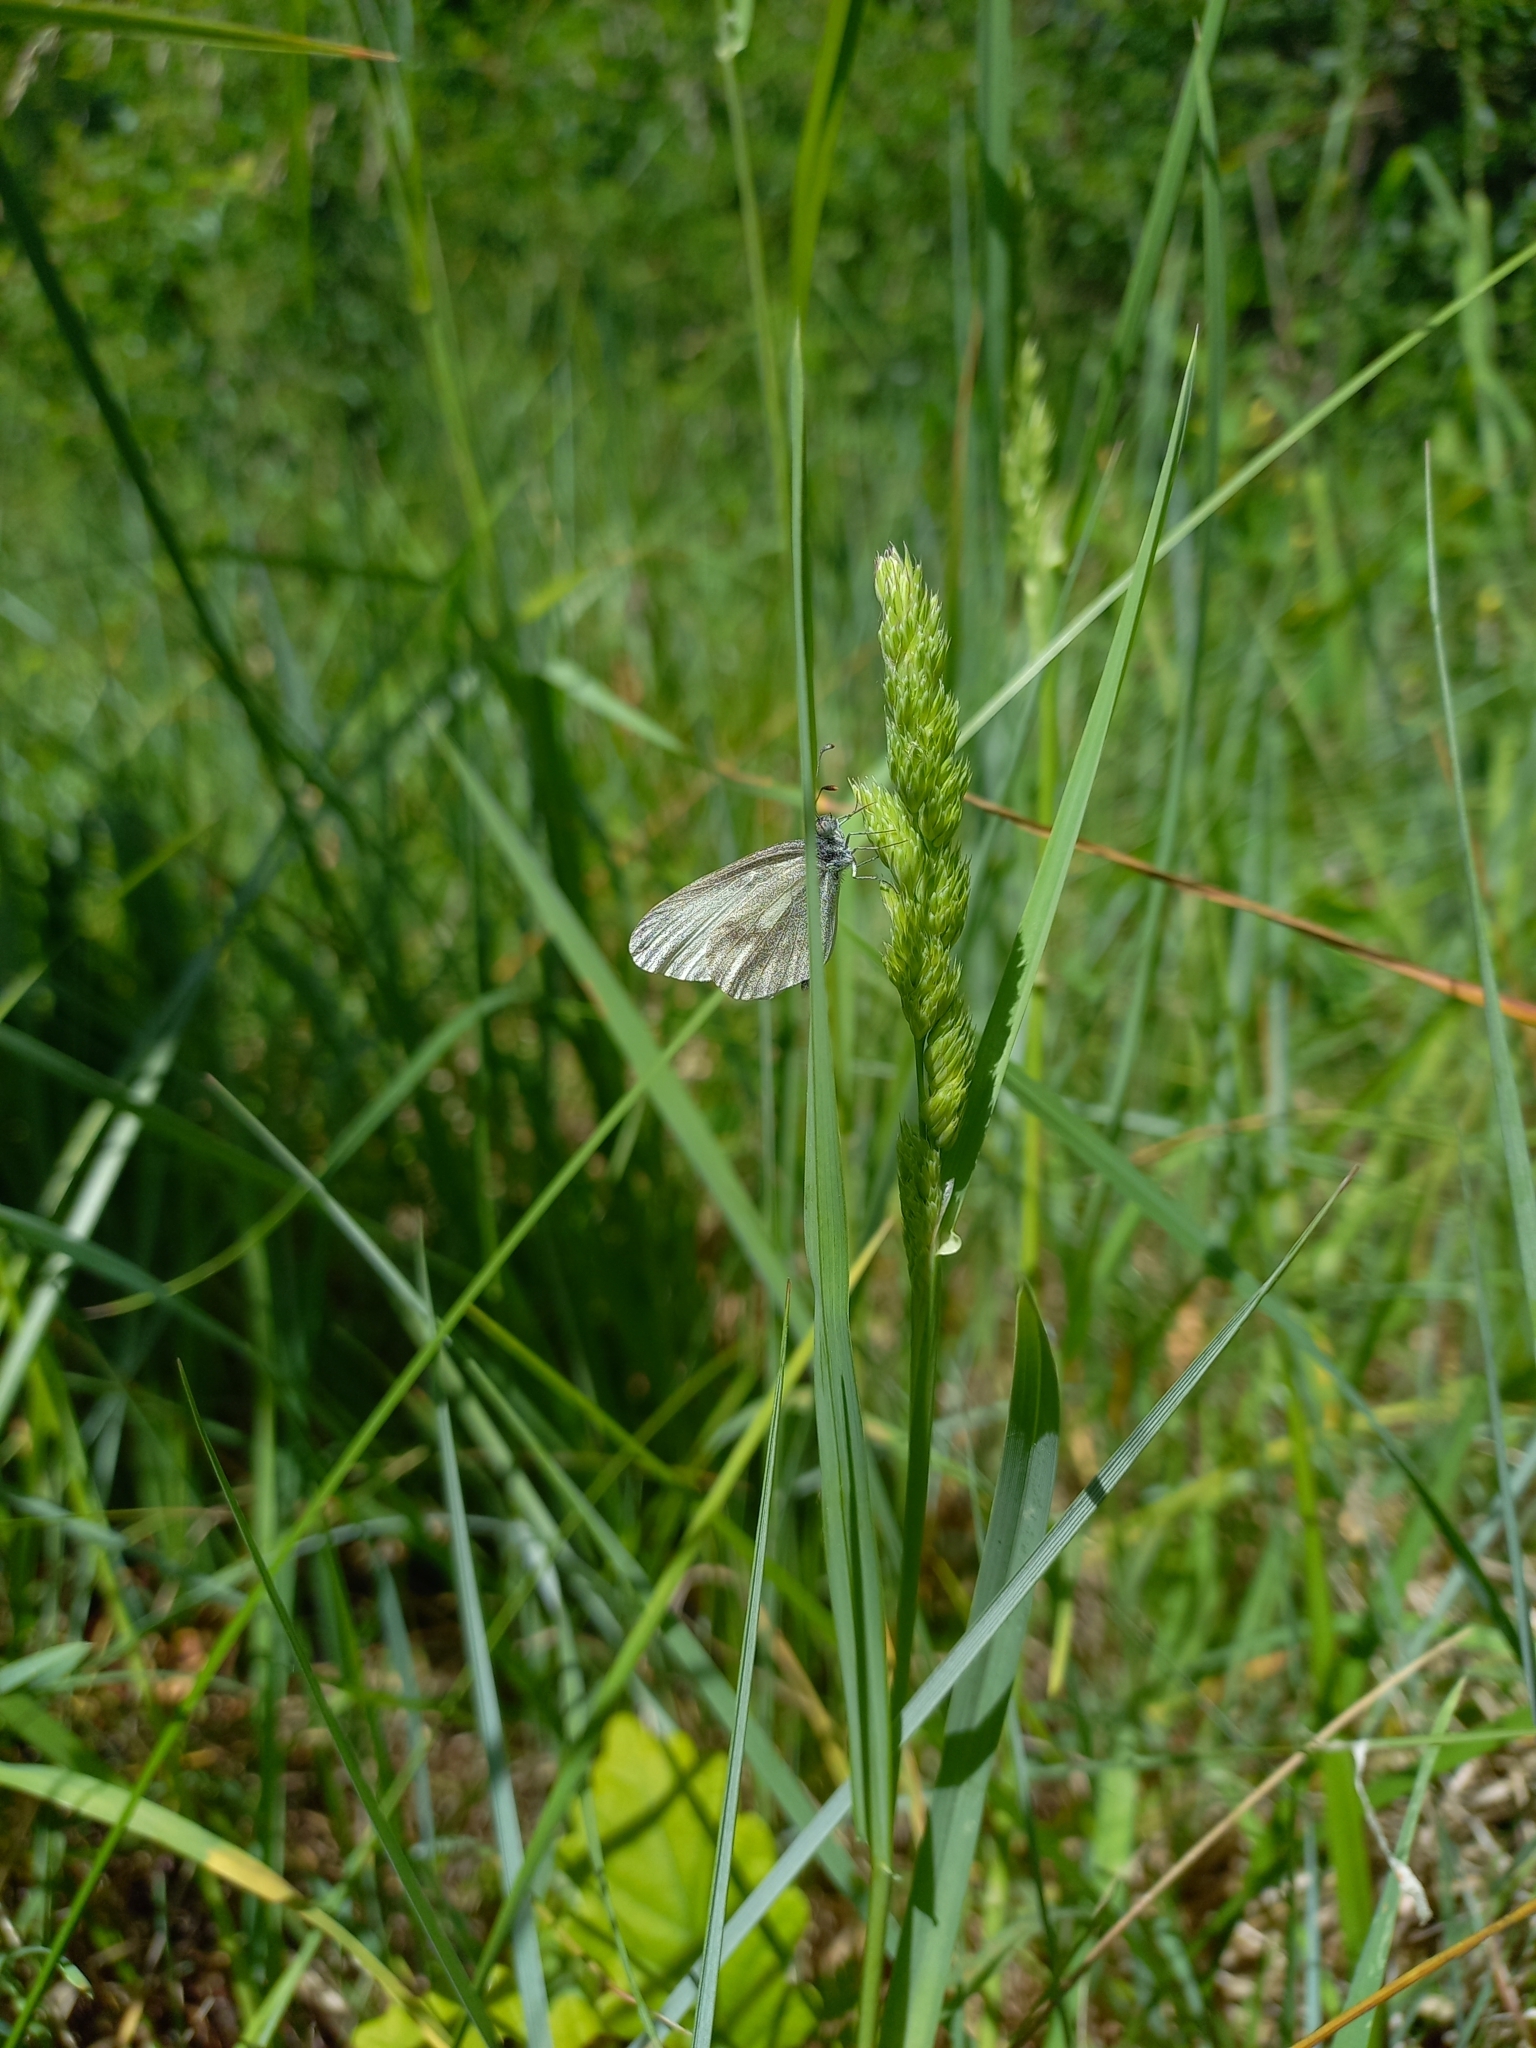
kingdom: Animalia
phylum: Arthropoda
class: Insecta
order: Lepidoptera
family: Pieridae
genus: Leptidea
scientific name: Leptidea sinapis
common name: Wood white
